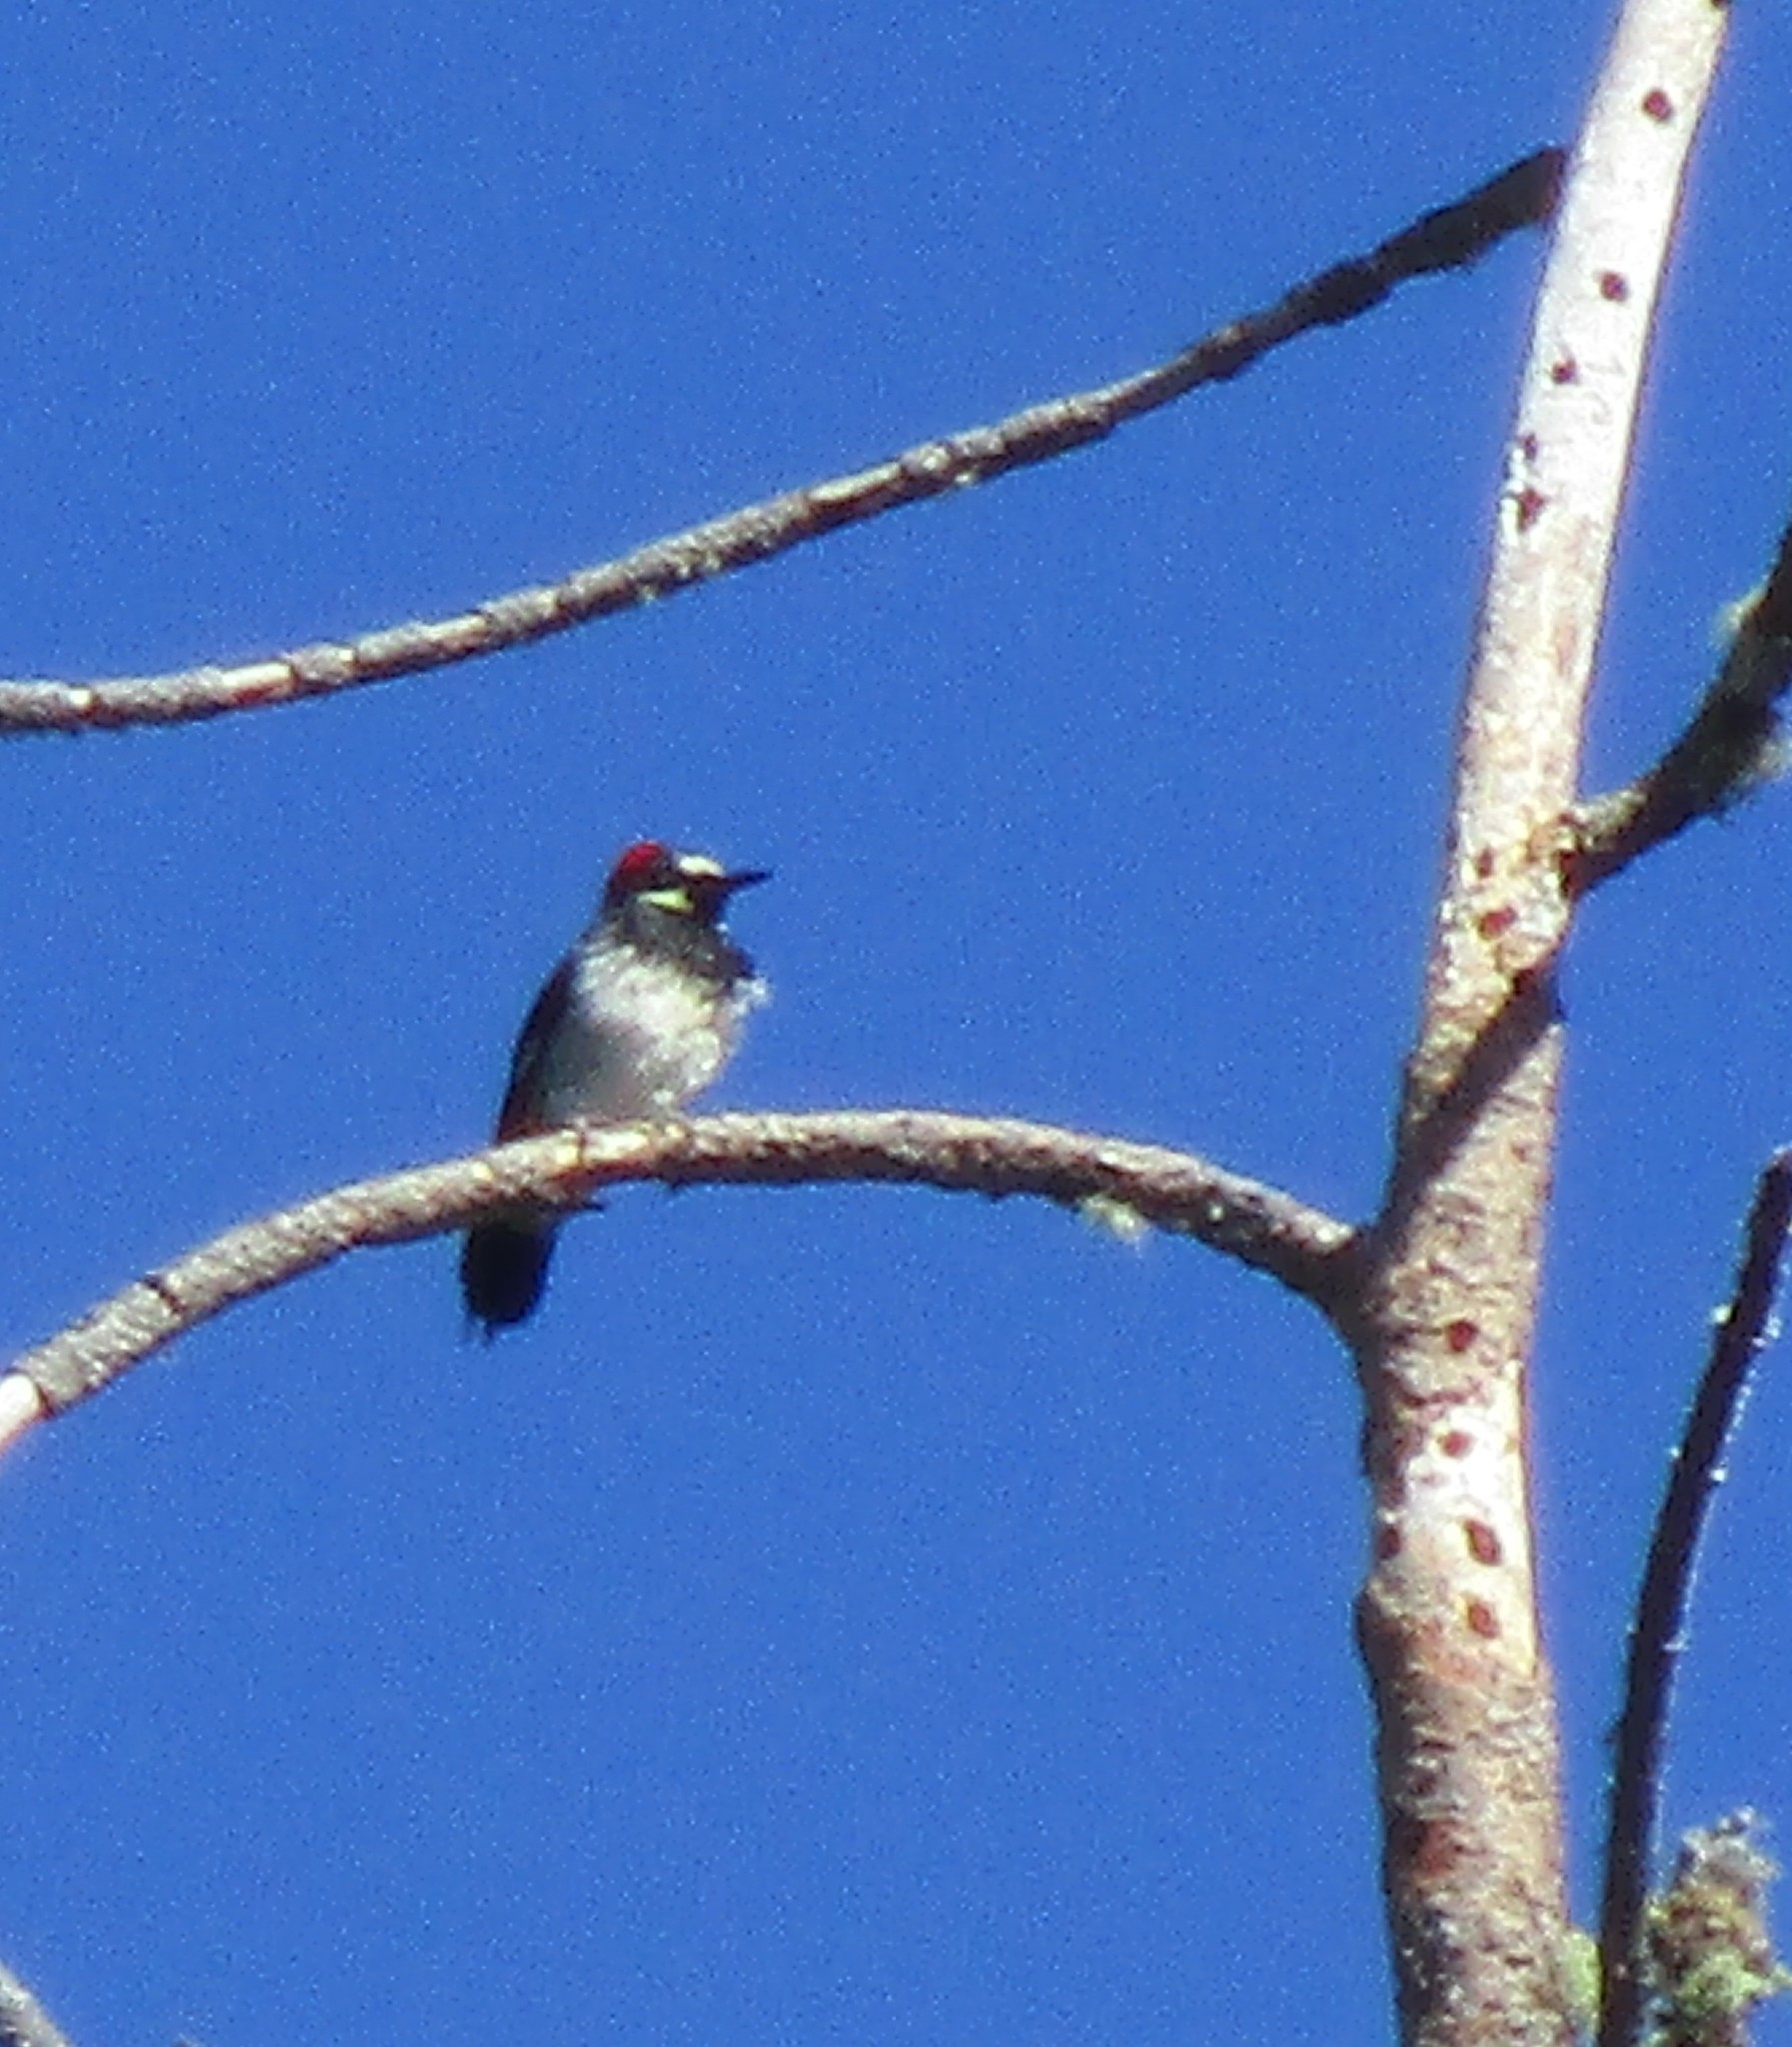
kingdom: Animalia
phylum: Chordata
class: Aves
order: Piciformes
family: Picidae
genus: Melanerpes
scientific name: Melanerpes formicivorus
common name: Acorn woodpecker
